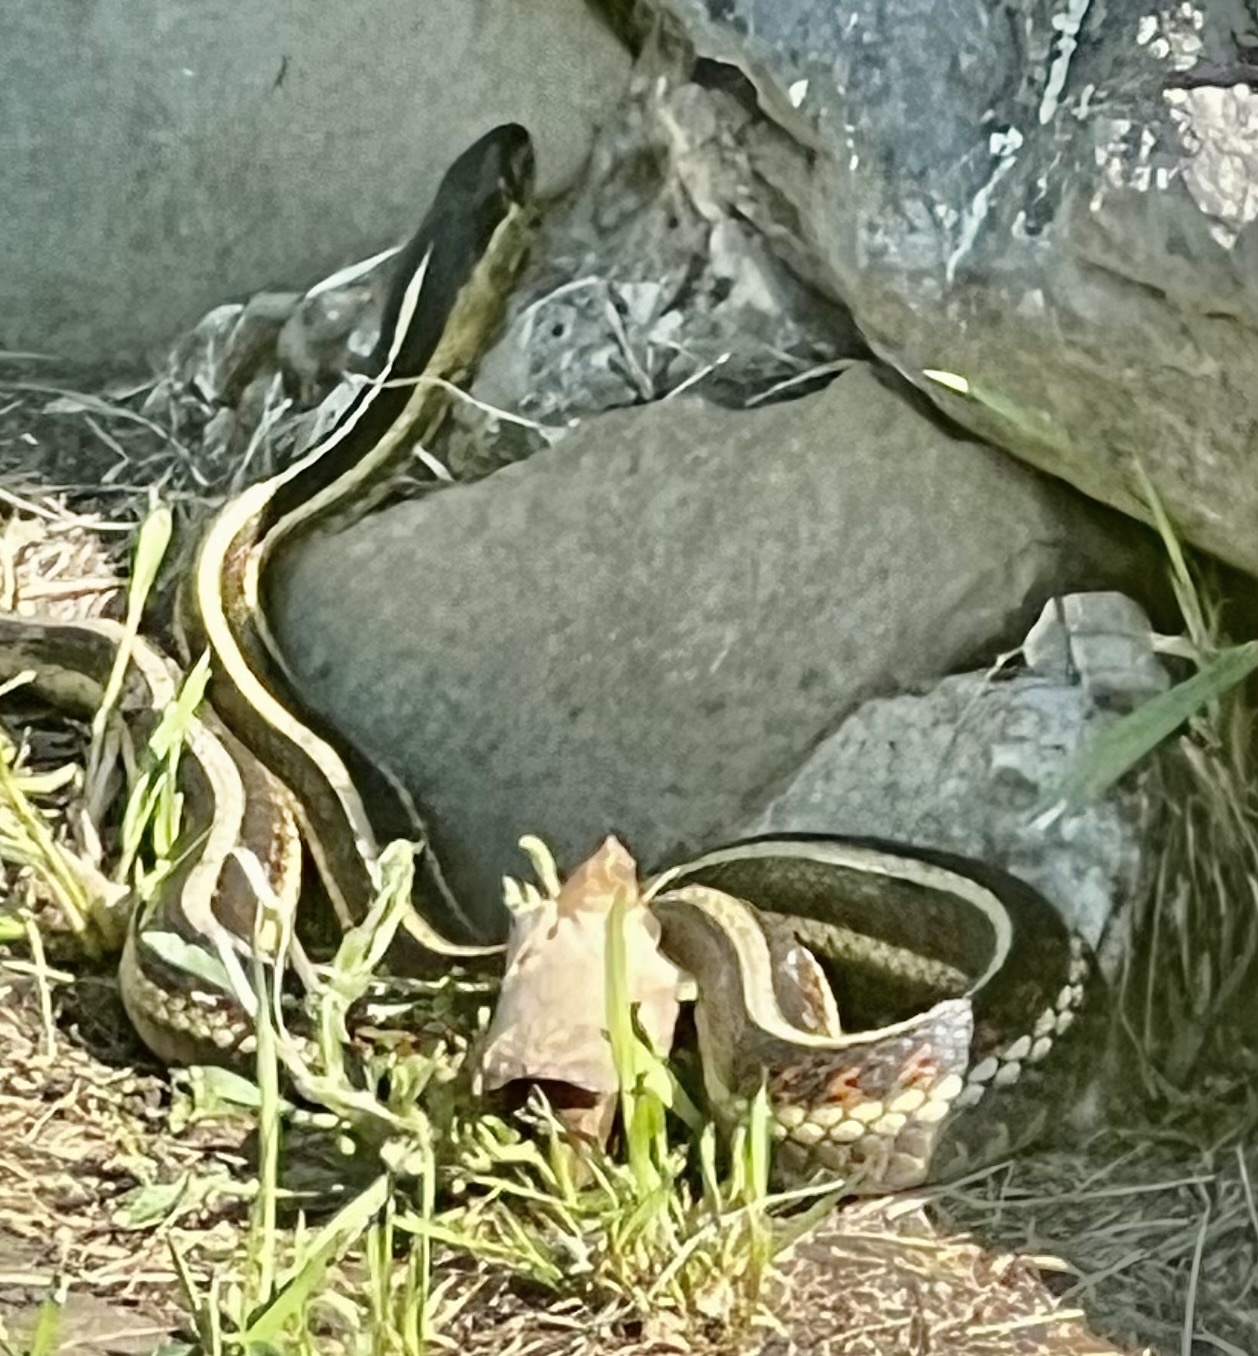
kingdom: Animalia
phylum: Chordata
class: Squamata
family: Colubridae
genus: Thamnophis
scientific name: Thamnophis sirtalis
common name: Common garter snake
